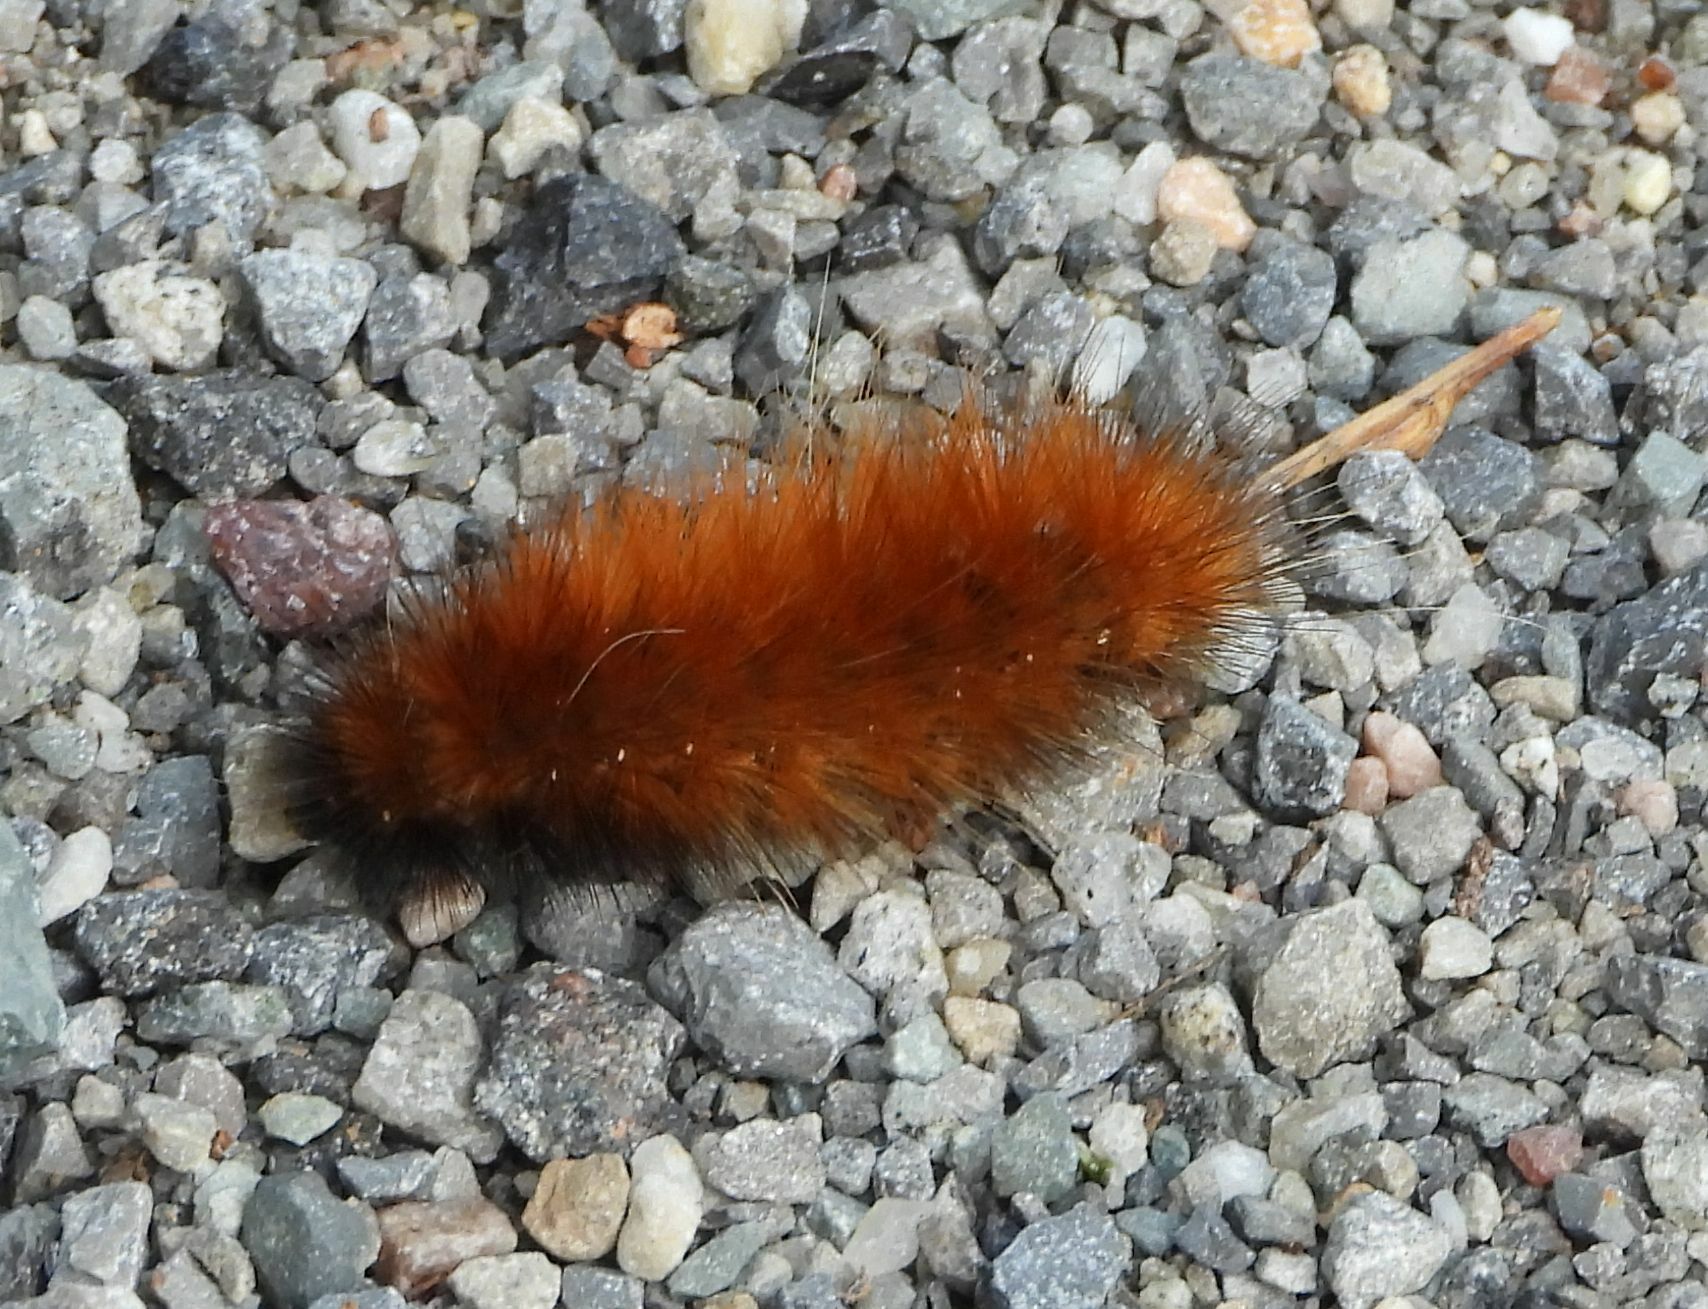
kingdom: Animalia
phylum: Arthropoda
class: Insecta
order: Lepidoptera
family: Erebidae
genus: Spilosoma
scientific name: Spilosoma virginica
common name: Virginia tiger moth
